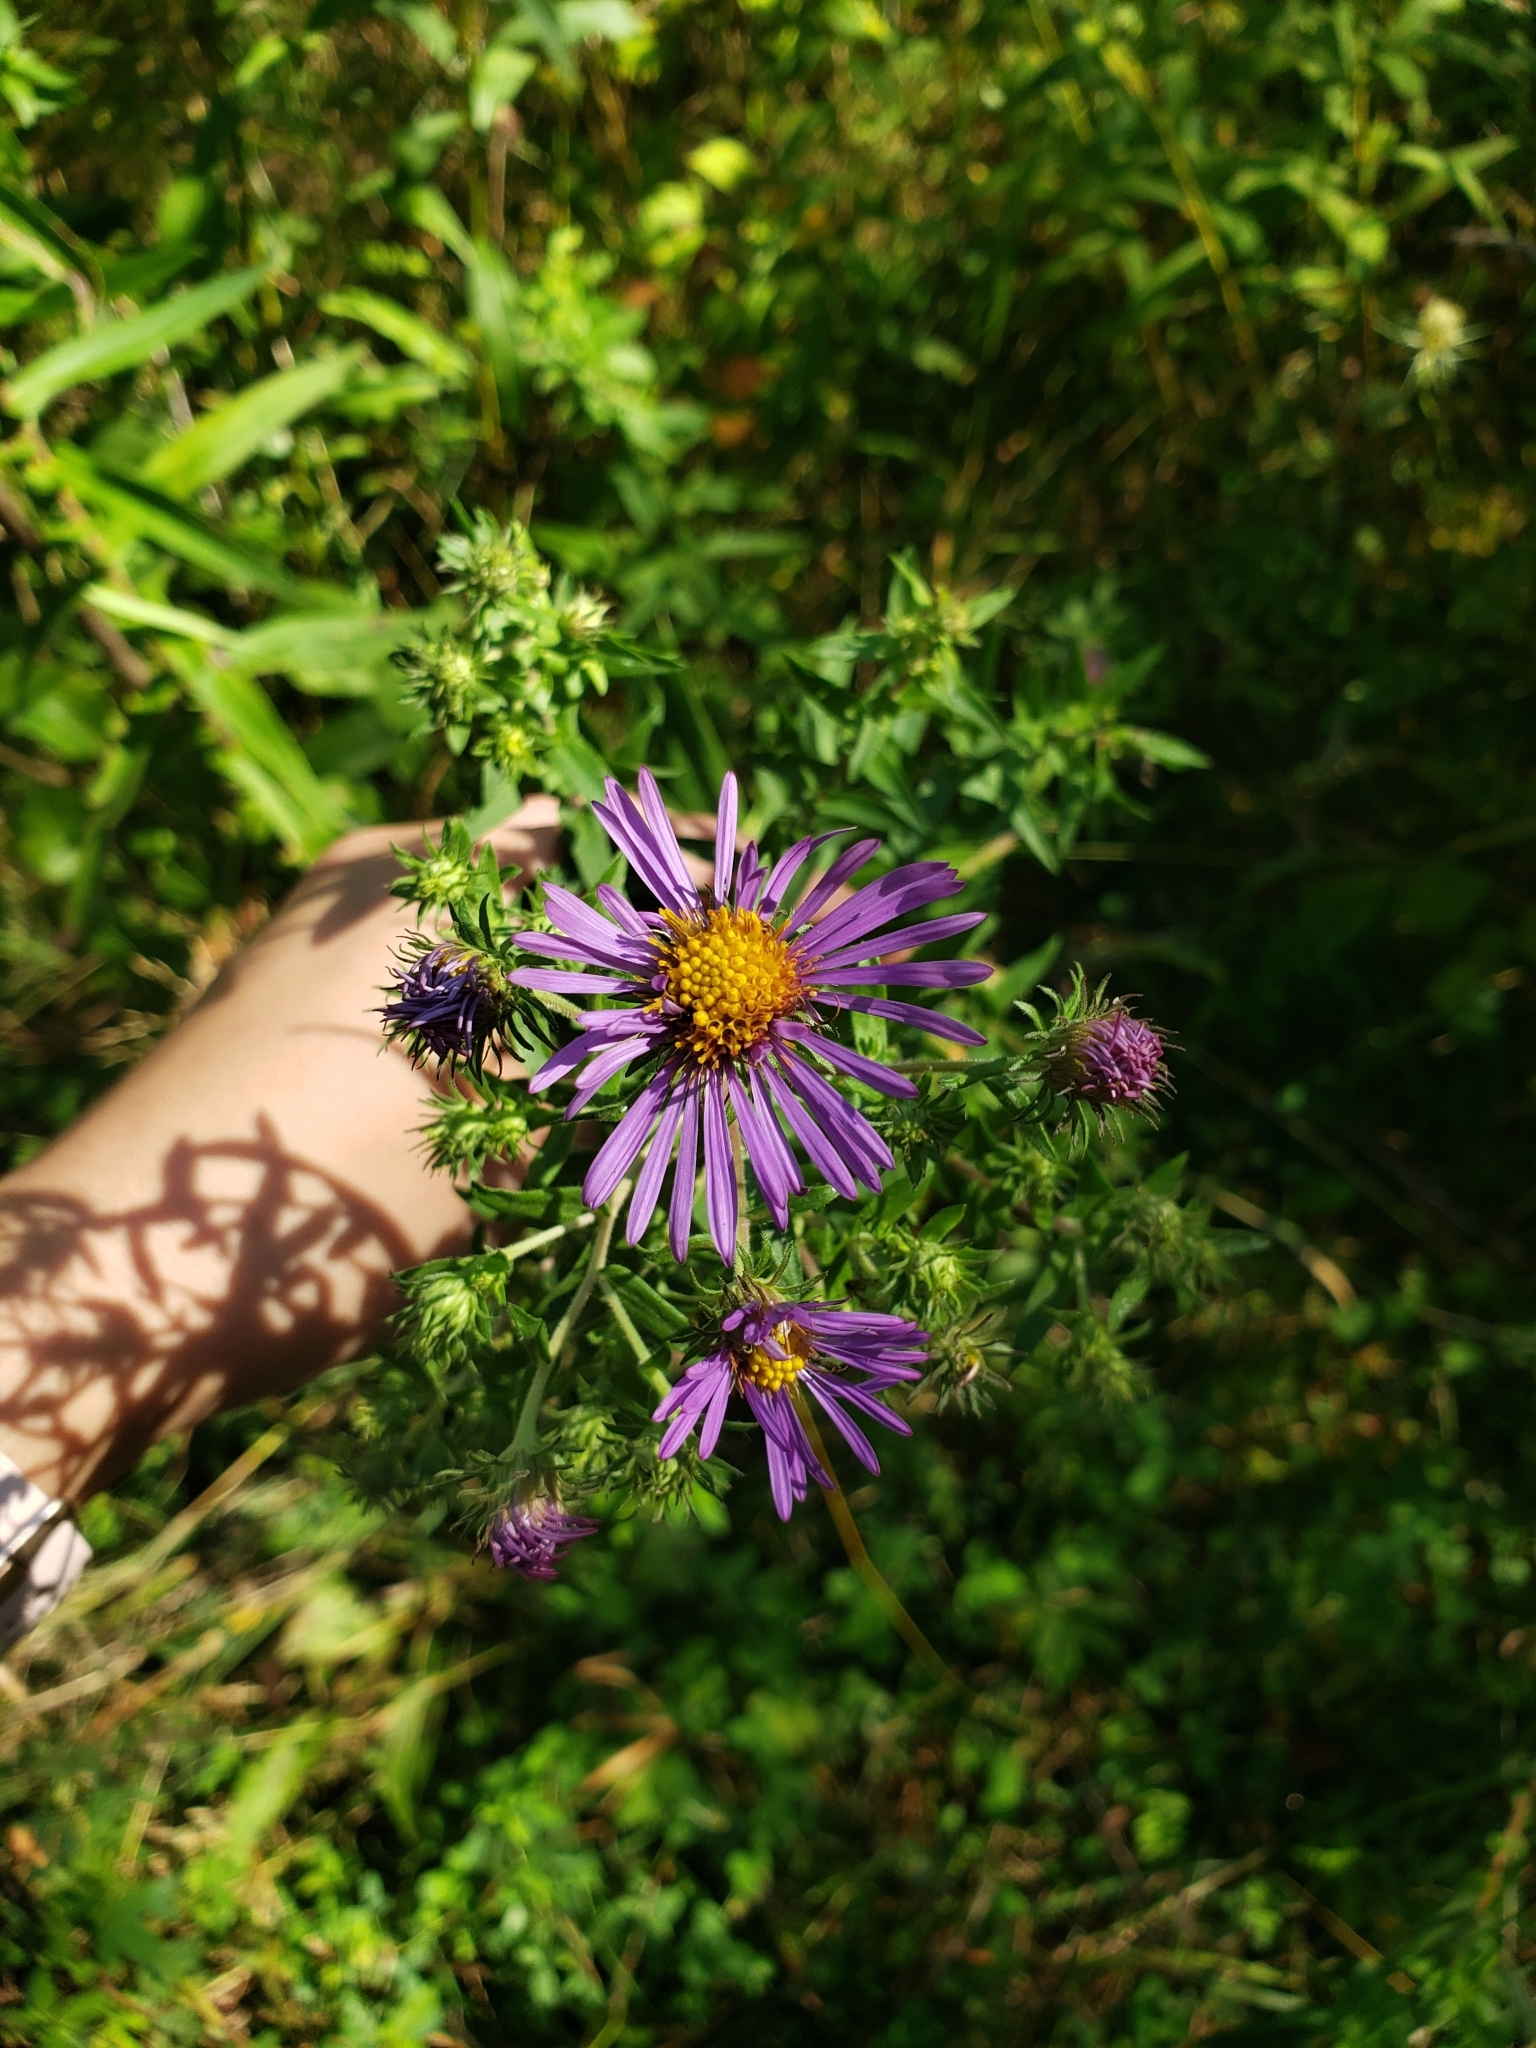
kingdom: Plantae
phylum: Tracheophyta
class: Magnoliopsida
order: Asterales
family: Asteraceae
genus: Symphyotrichum
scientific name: Symphyotrichum novae-angliae
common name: Michaelmas daisy
